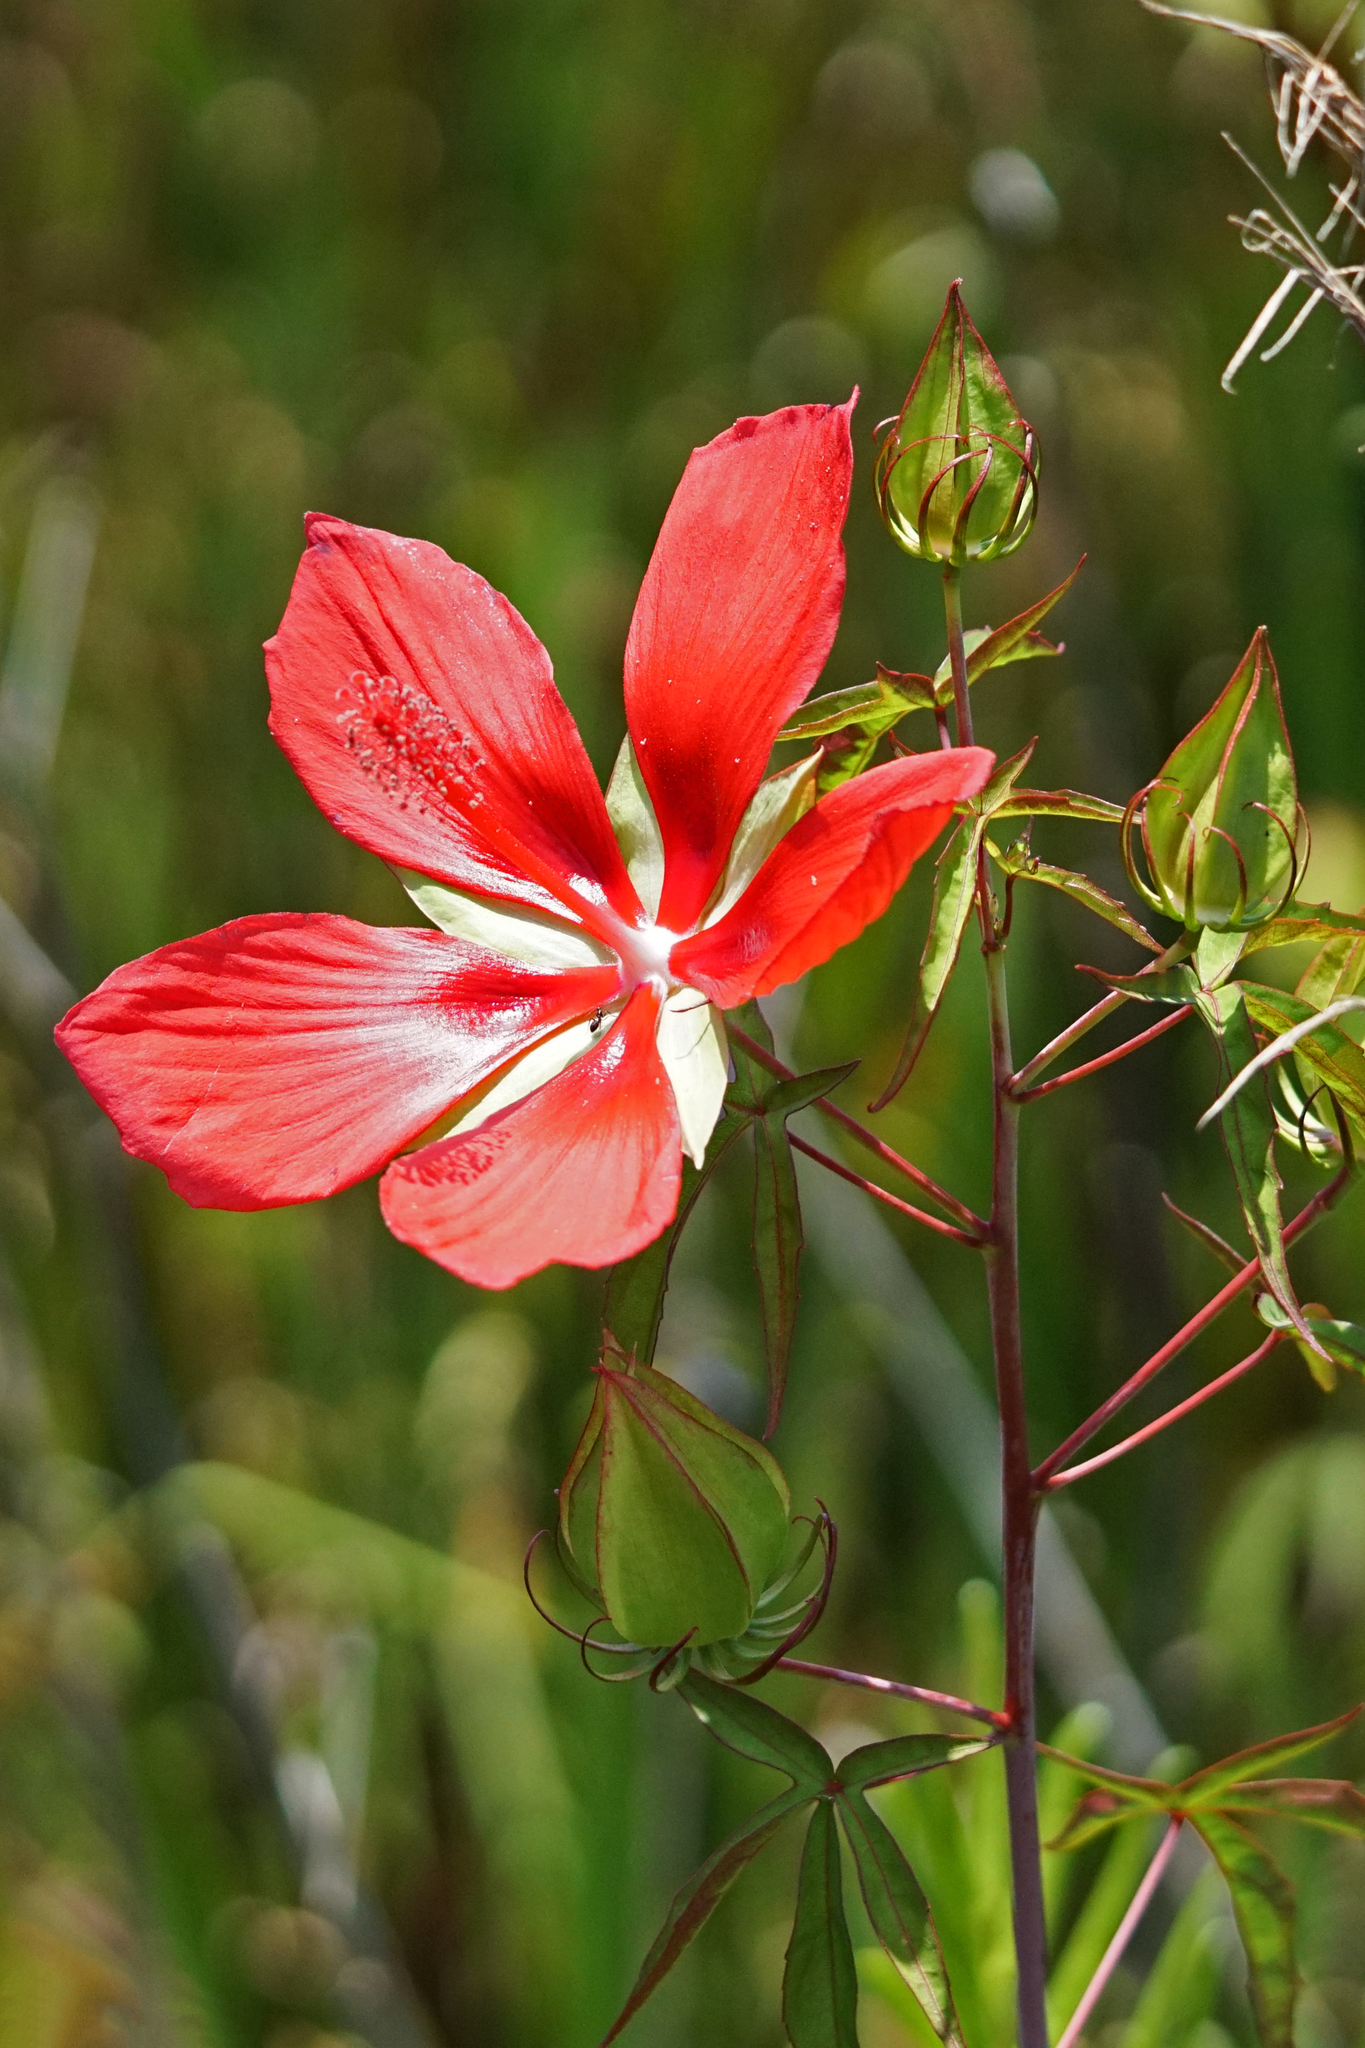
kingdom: Plantae
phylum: Tracheophyta
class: Magnoliopsida
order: Malvales
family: Malvaceae
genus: Hibiscus
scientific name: Hibiscus coccineus
